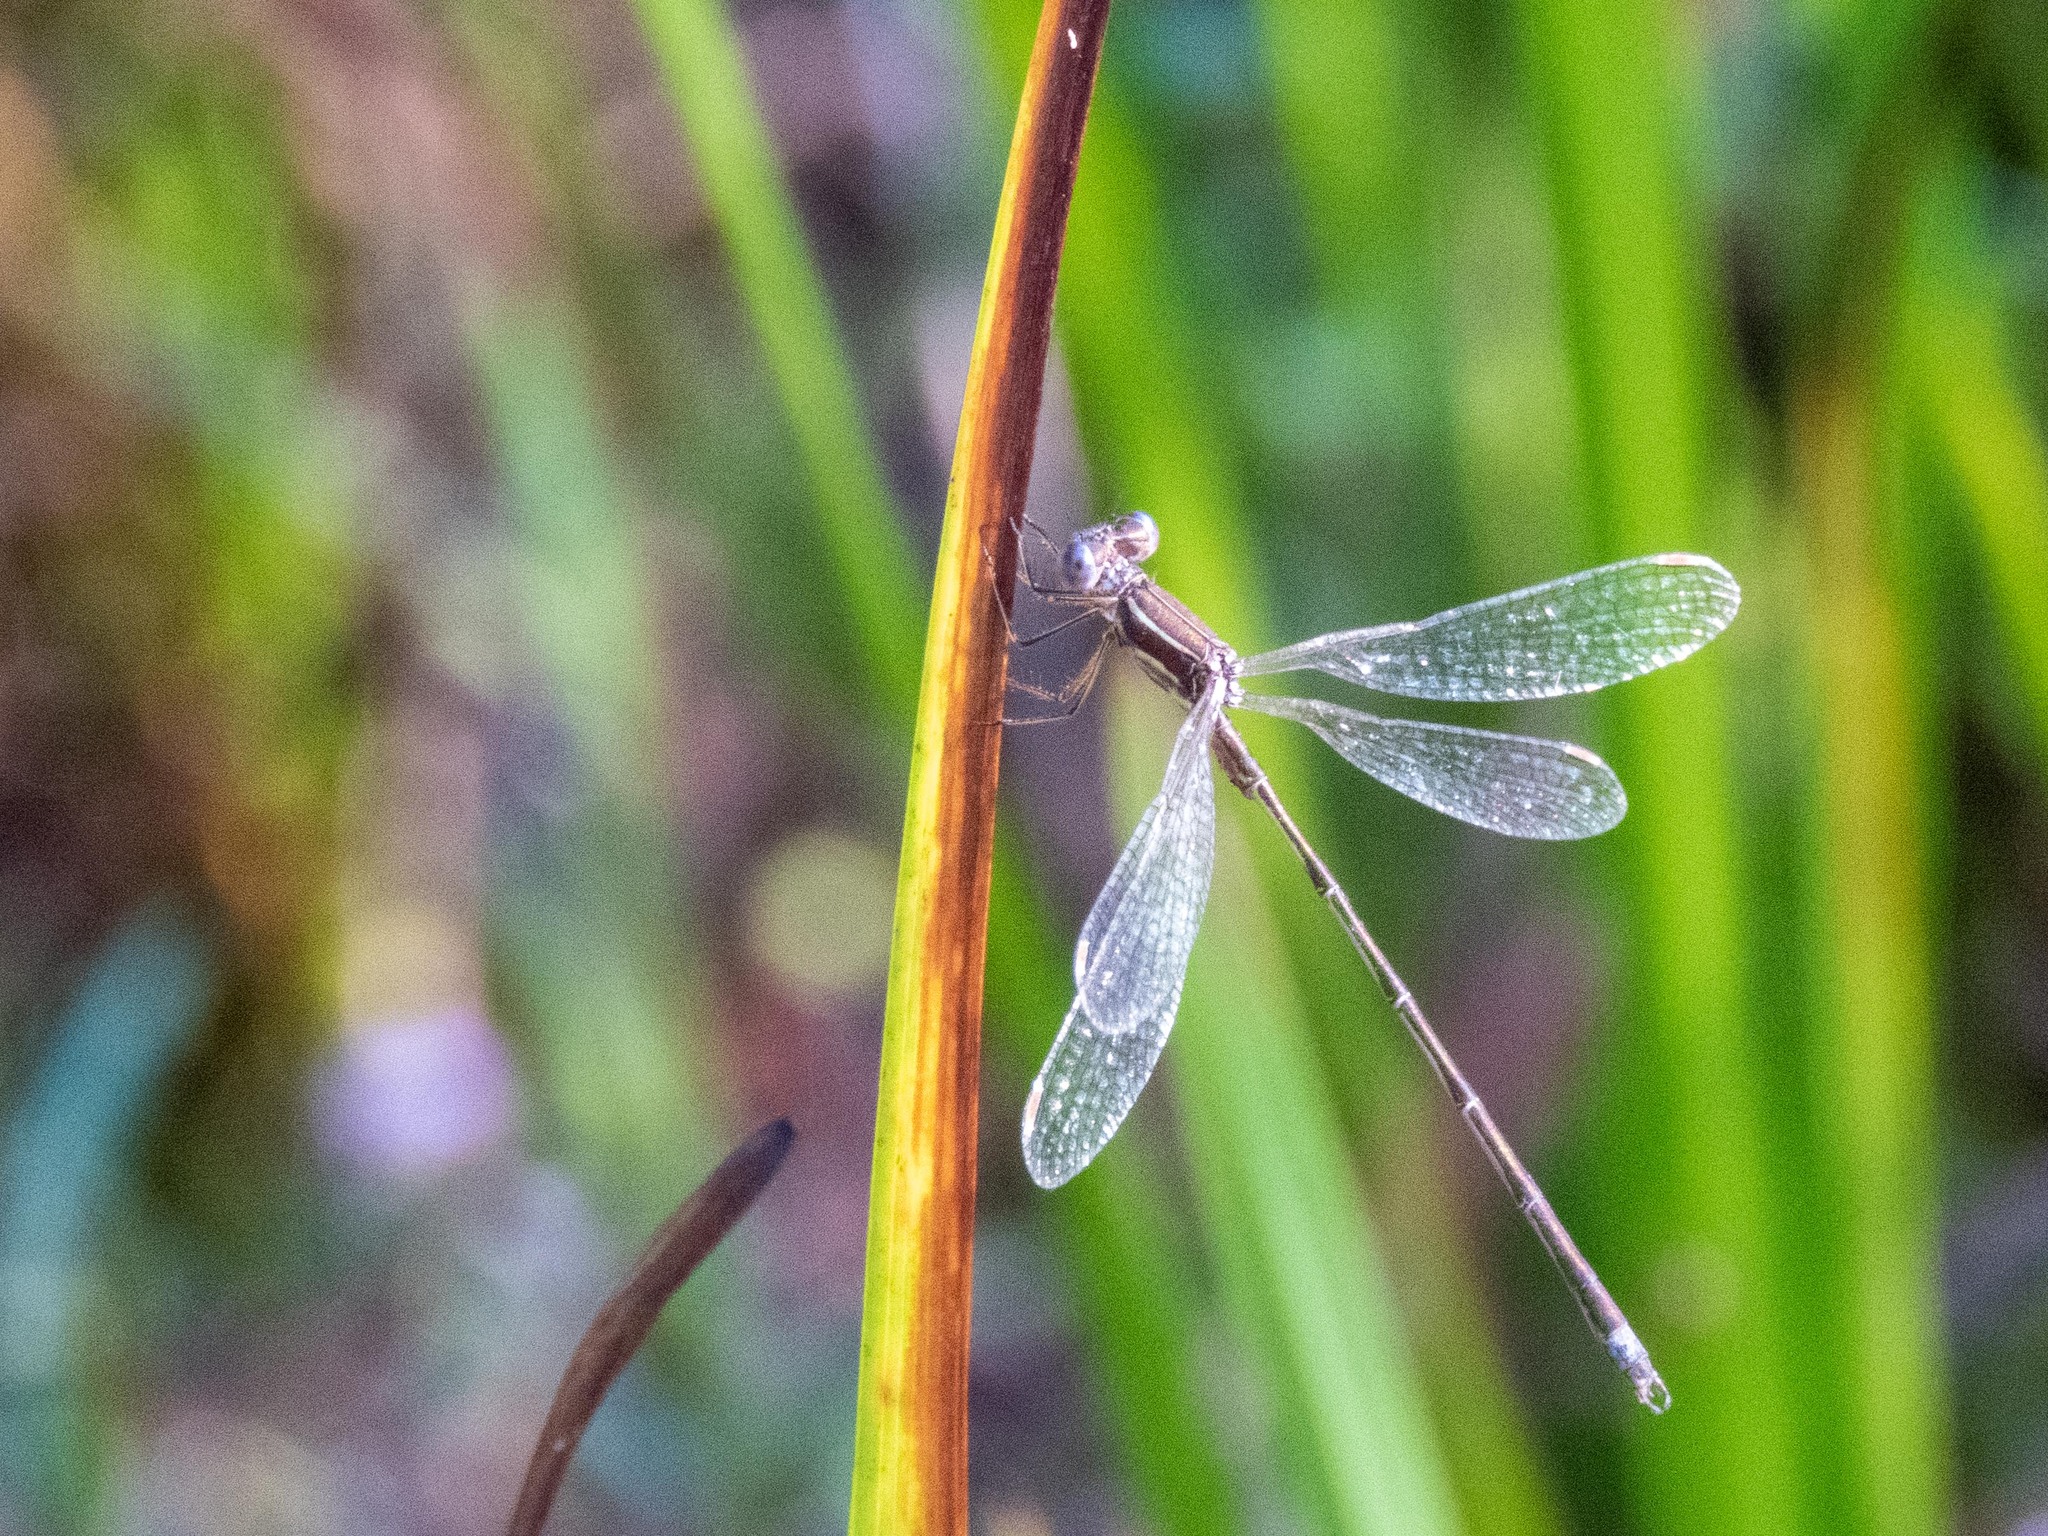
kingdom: Animalia
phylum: Arthropoda
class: Insecta
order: Odonata
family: Lestidae
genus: Lestes
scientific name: Lestes virens
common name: Small emerald spreadwing
